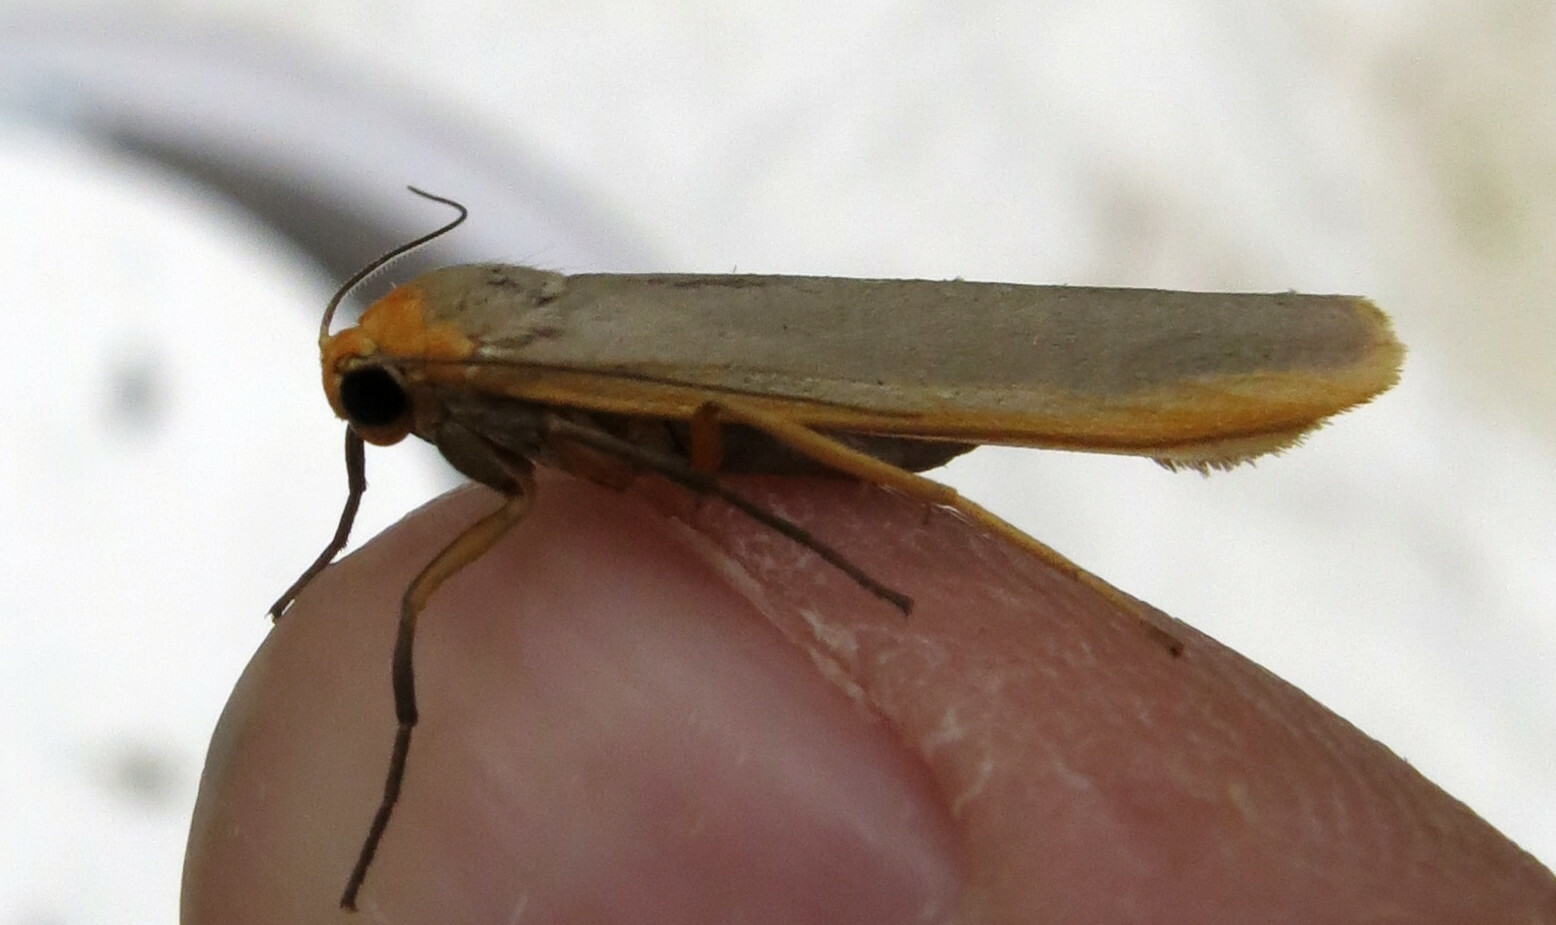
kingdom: Animalia
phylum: Arthropoda
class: Insecta
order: Lepidoptera
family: Erebidae
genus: Manulea
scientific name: Manulea complana
